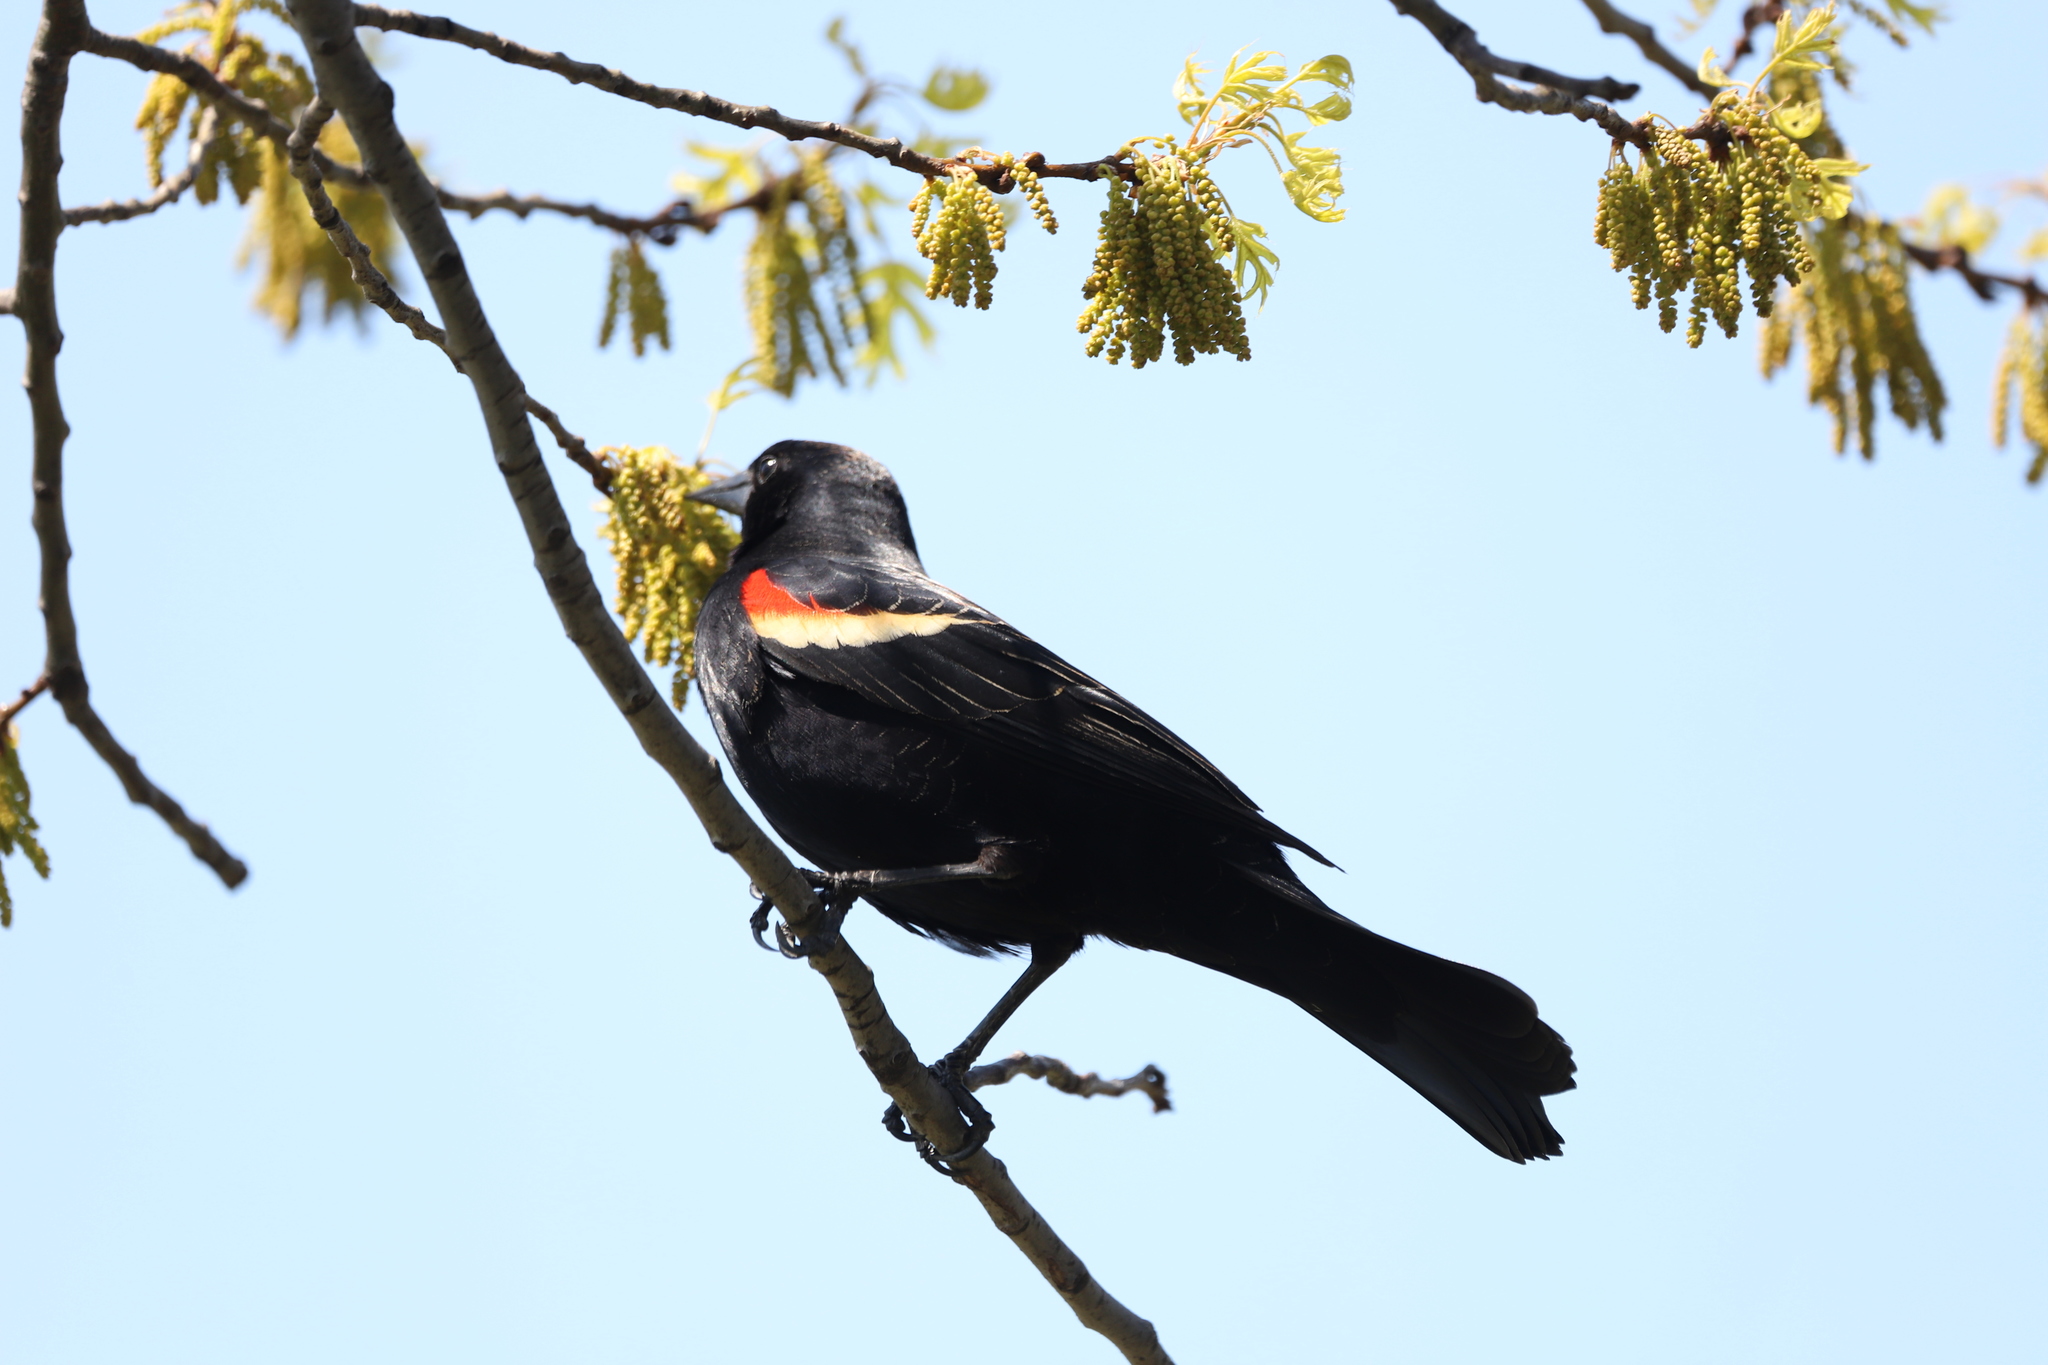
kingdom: Animalia
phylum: Chordata
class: Aves
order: Passeriformes
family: Icteridae
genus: Agelaius
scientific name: Agelaius phoeniceus
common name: Red-winged blackbird
